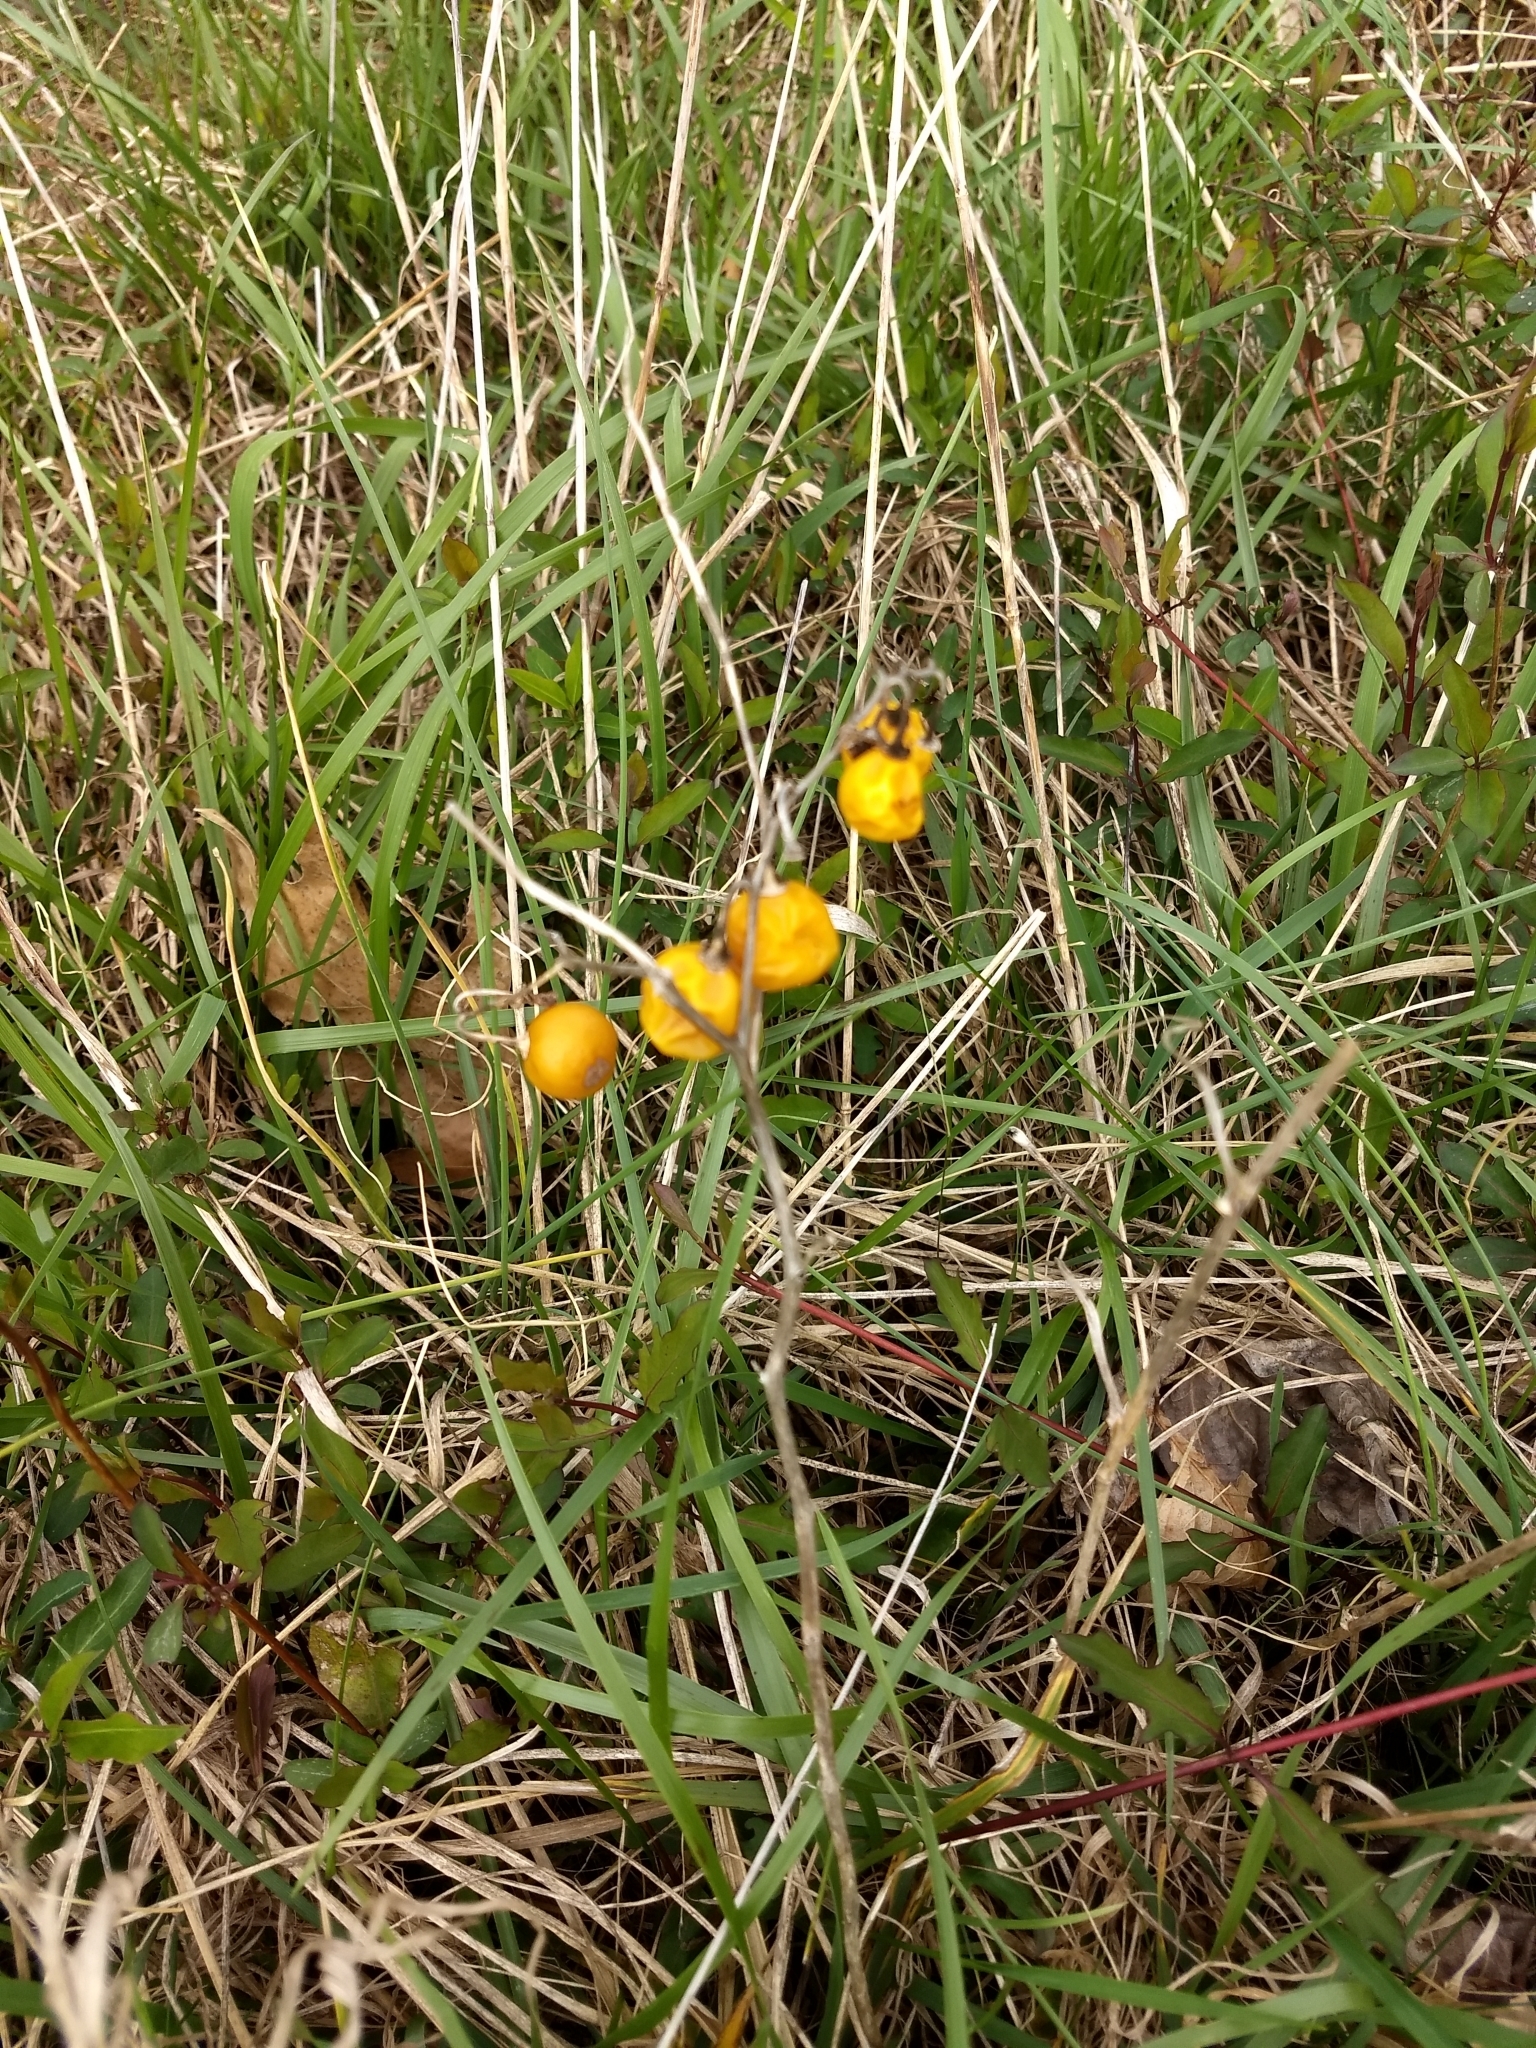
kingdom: Plantae
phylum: Tracheophyta
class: Magnoliopsida
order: Solanales
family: Solanaceae
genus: Solanum
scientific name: Solanum carolinense
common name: Horse-nettle
